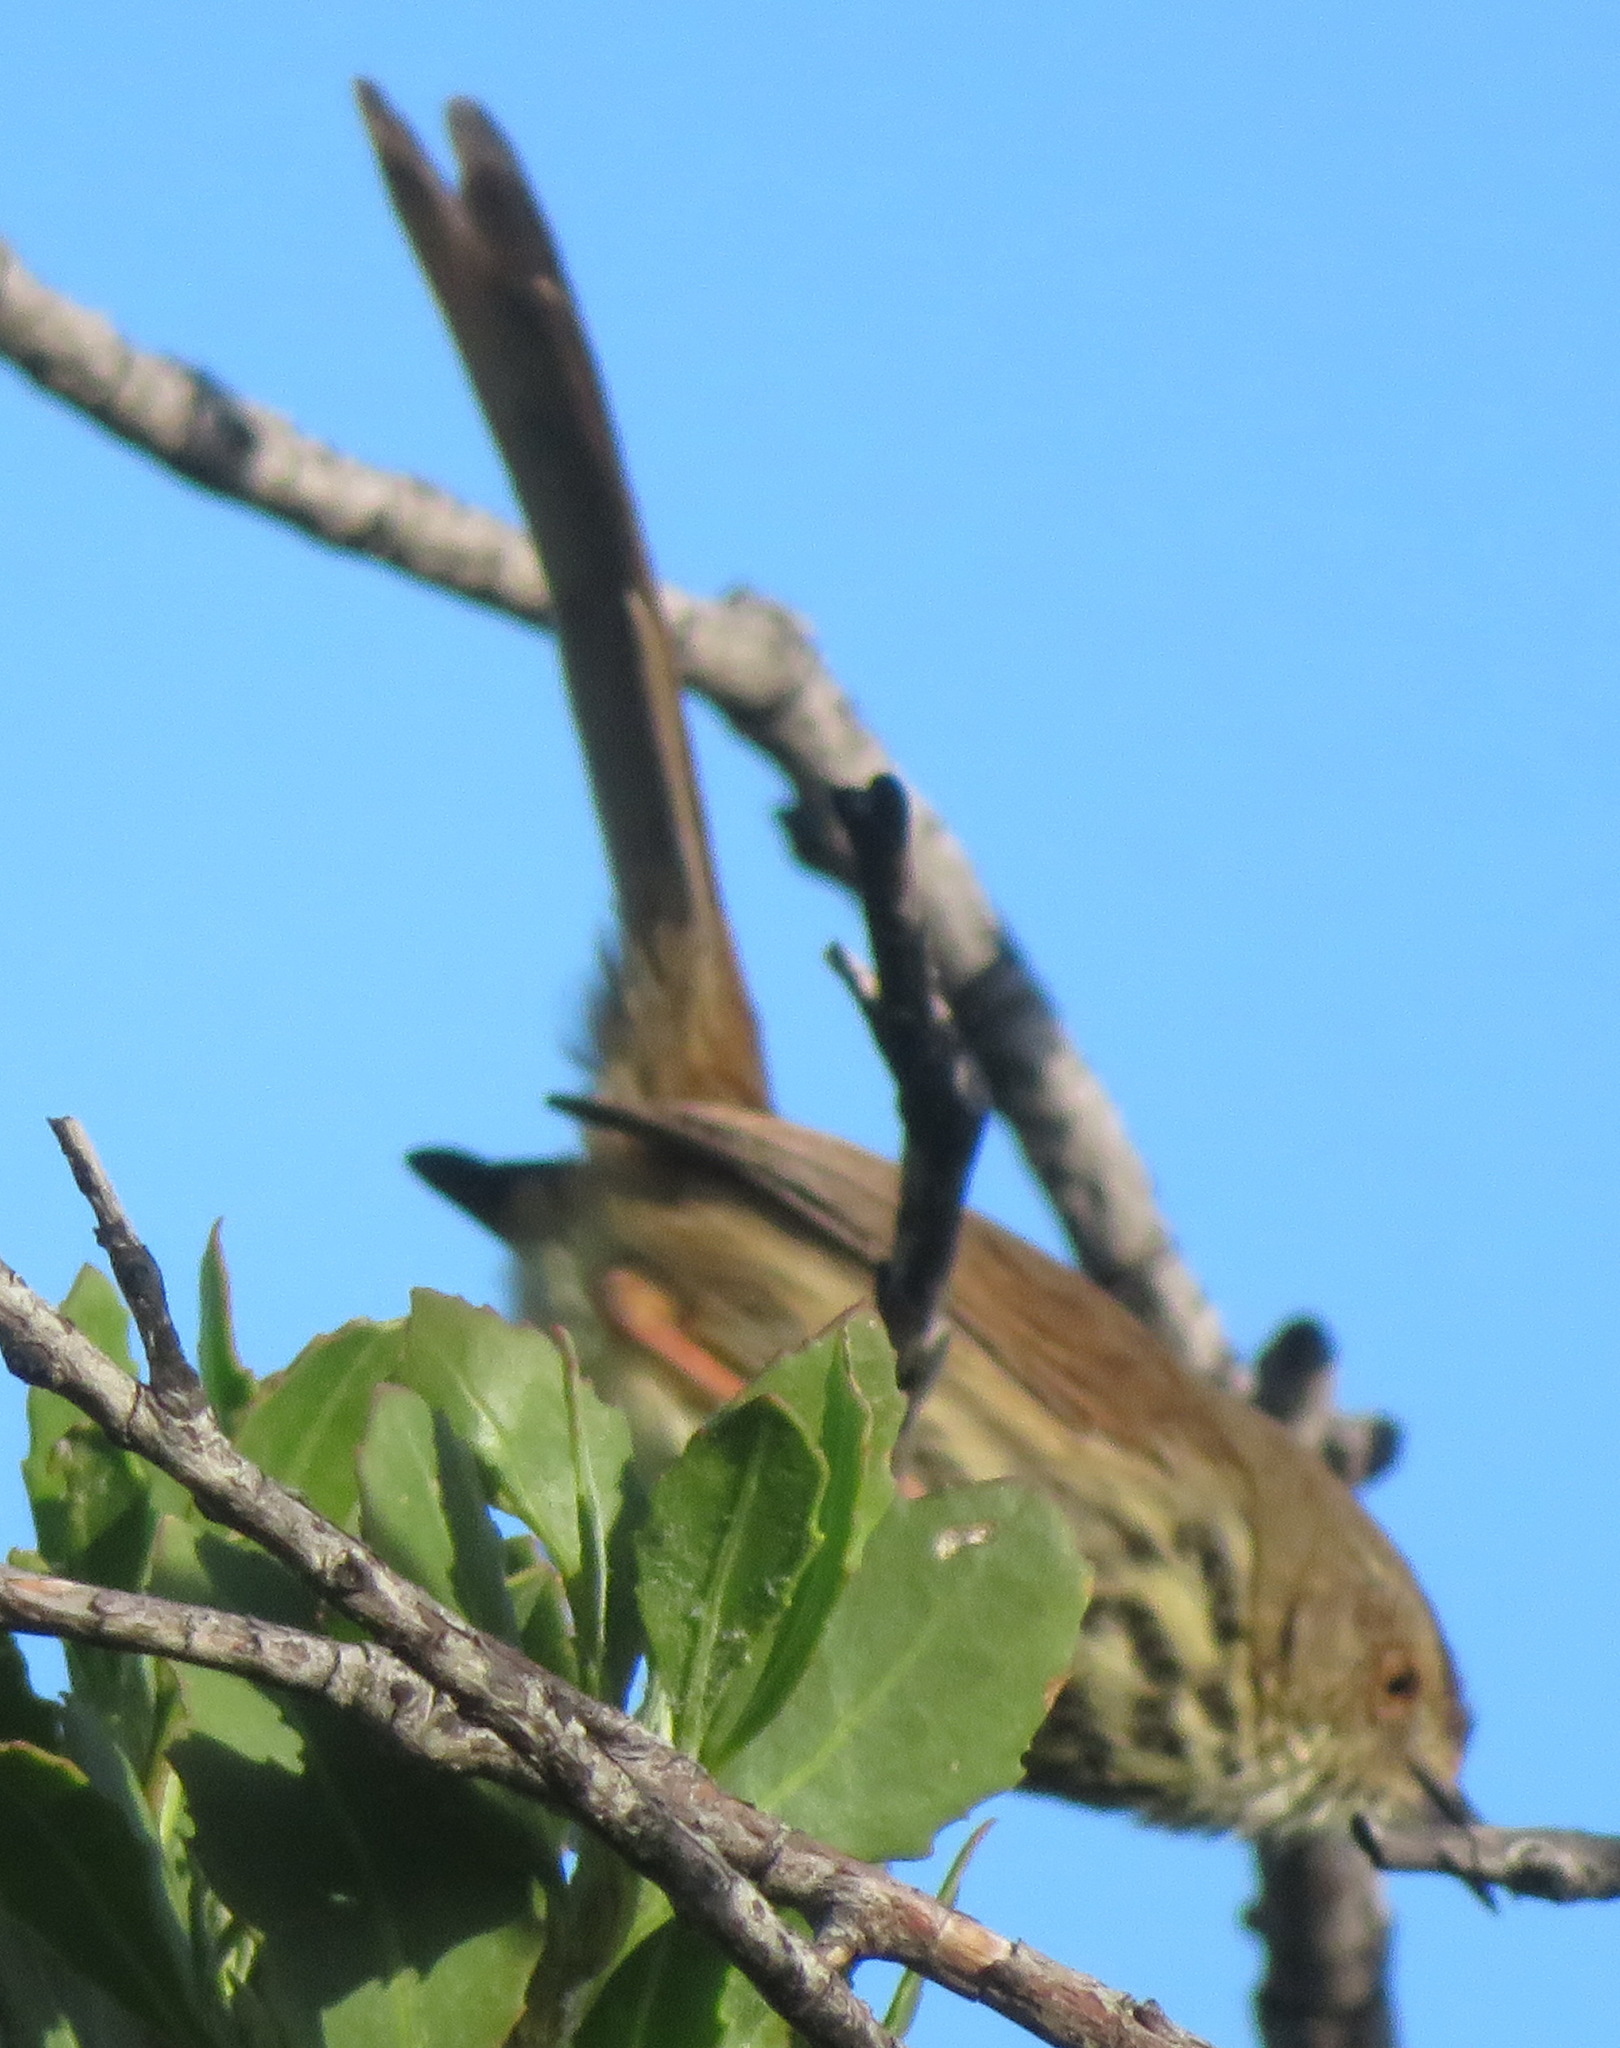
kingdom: Animalia
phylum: Chordata
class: Aves
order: Passeriformes
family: Cisticolidae
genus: Prinia
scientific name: Prinia maculosa
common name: Karoo prinia
